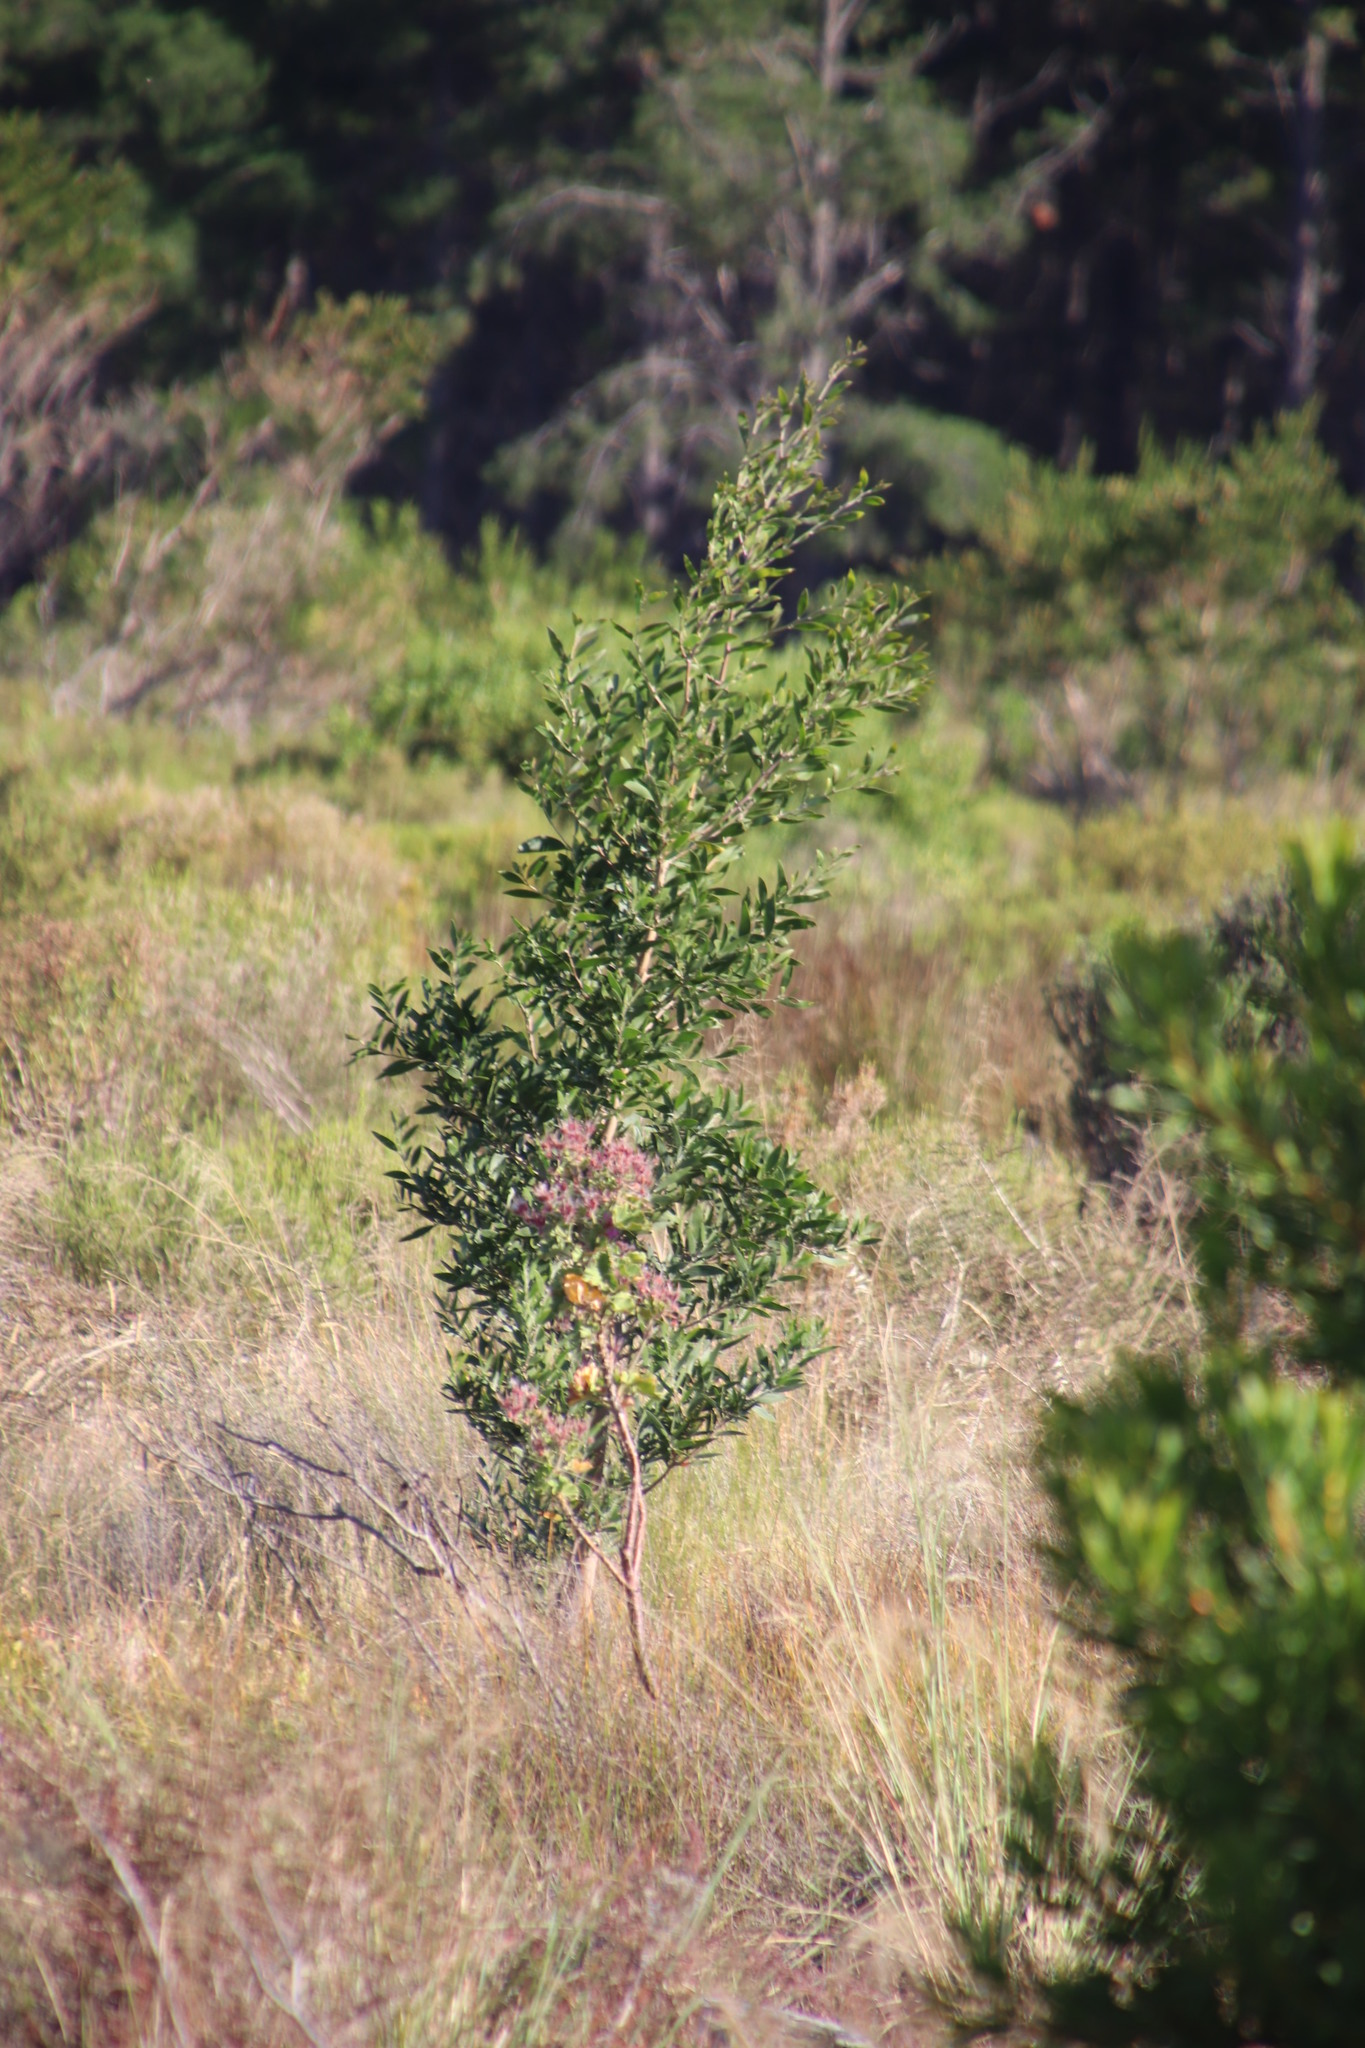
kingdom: Plantae
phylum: Tracheophyta
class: Magnoliopsida
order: Fabales
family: Fabaceae
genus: Acacia
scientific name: Acacia melanoxylon
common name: Blackwood
